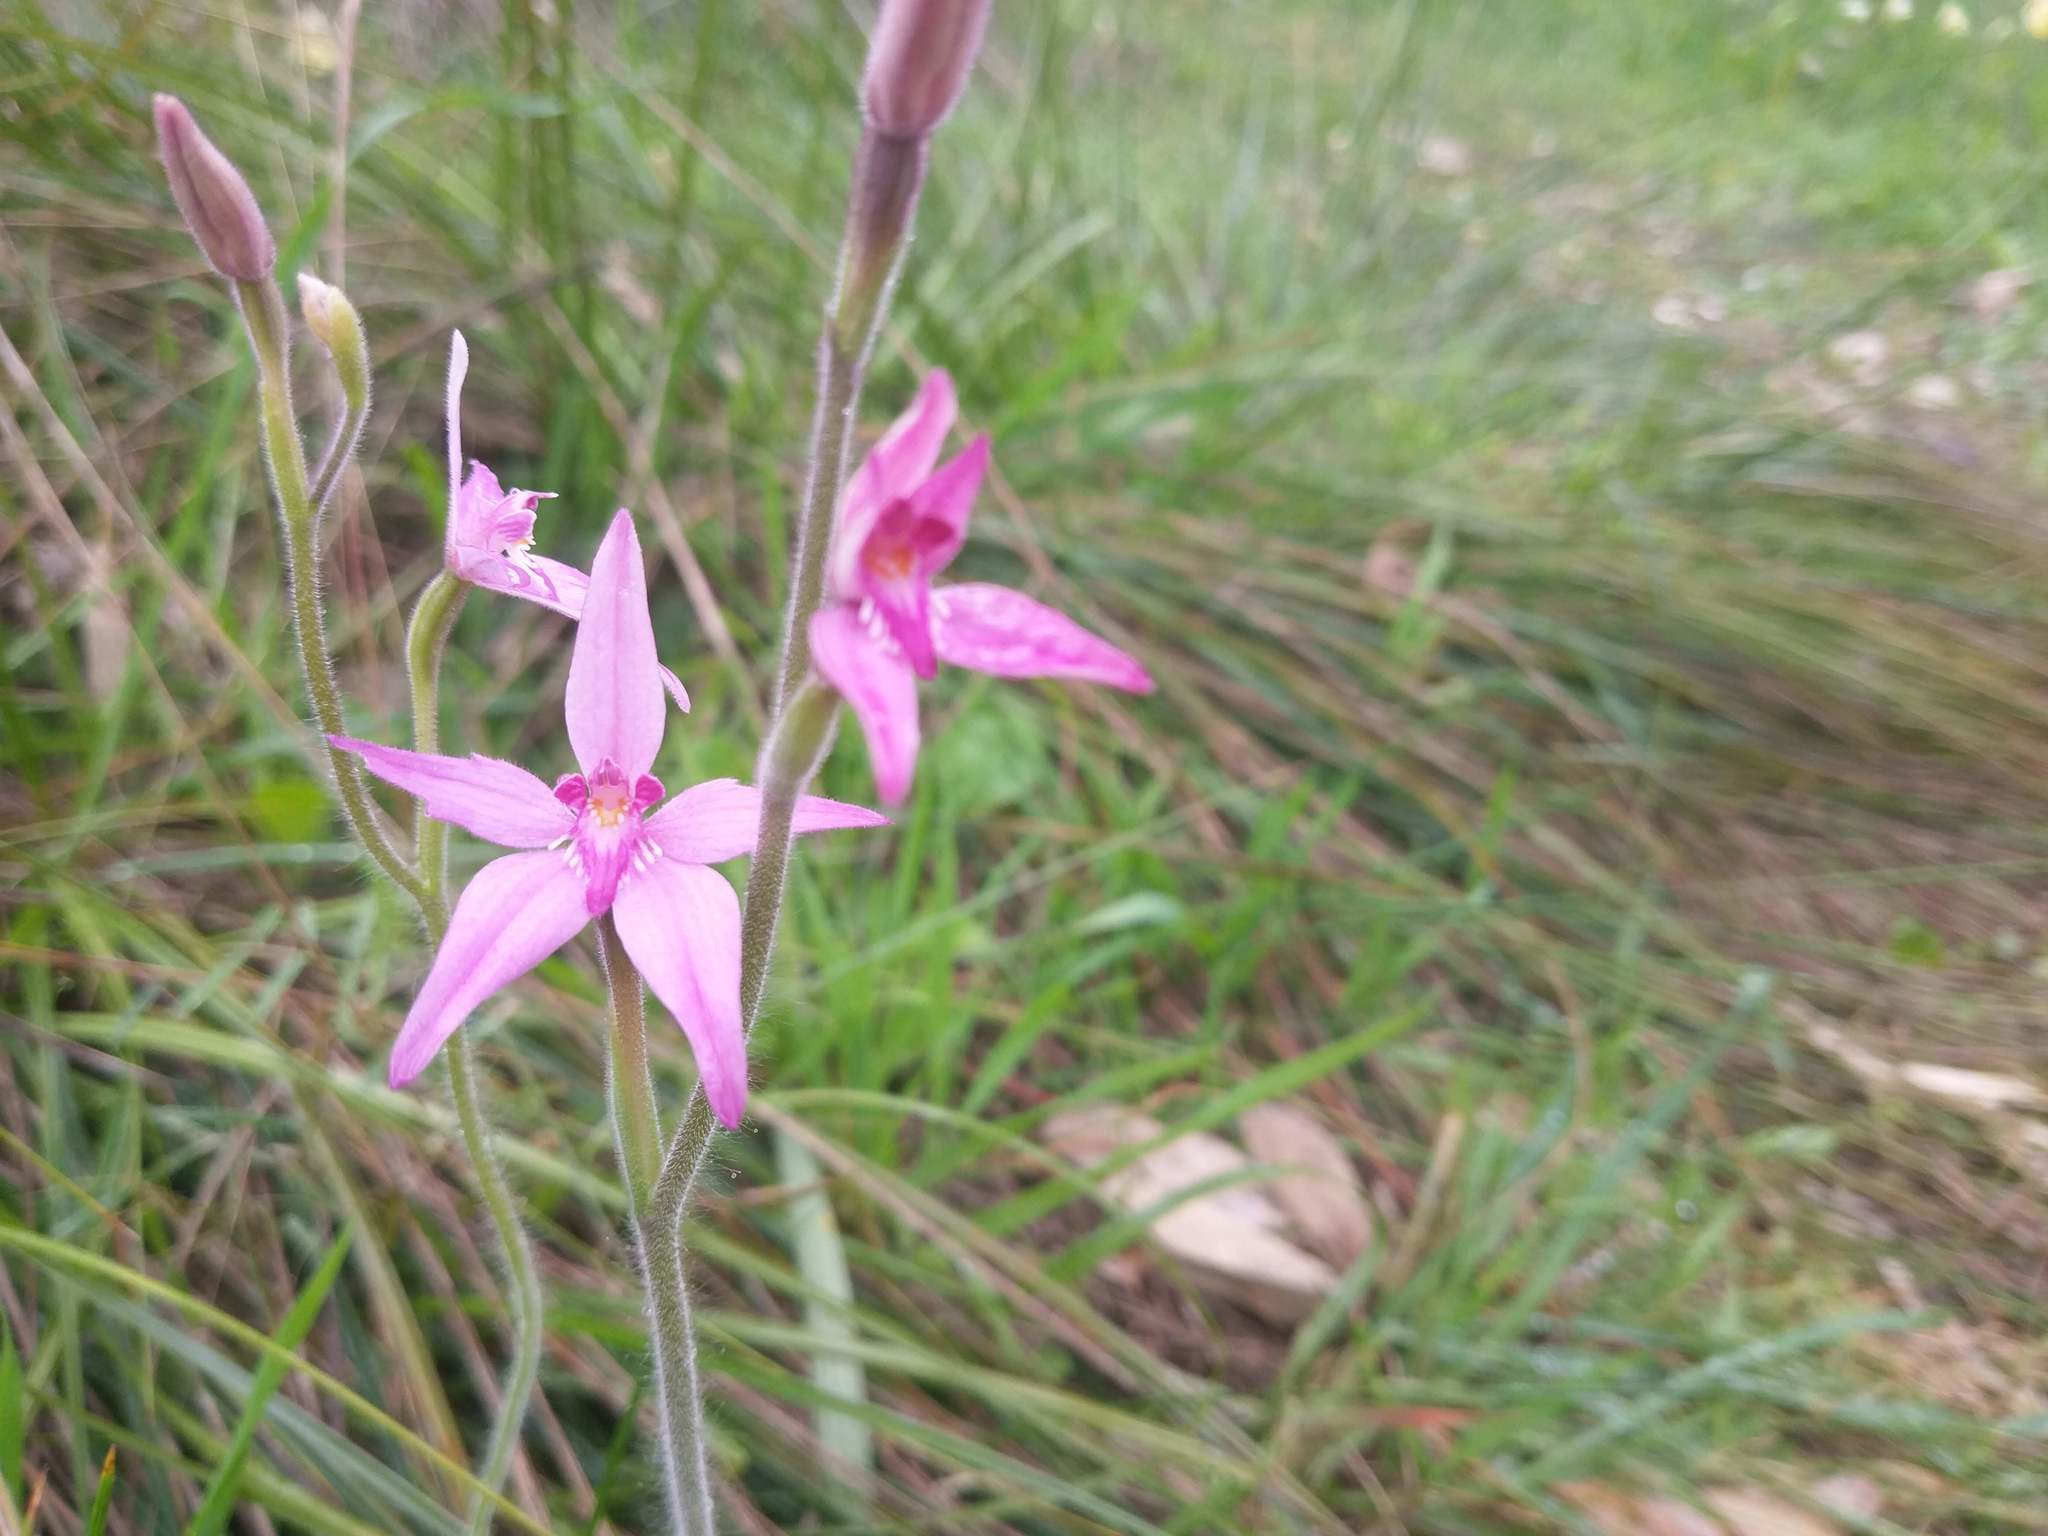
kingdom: Plantae
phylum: Tracheophyta
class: Liliopsida
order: Asparagales
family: Orchidaceae
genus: Caladenia
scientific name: Caladenia latifolia
